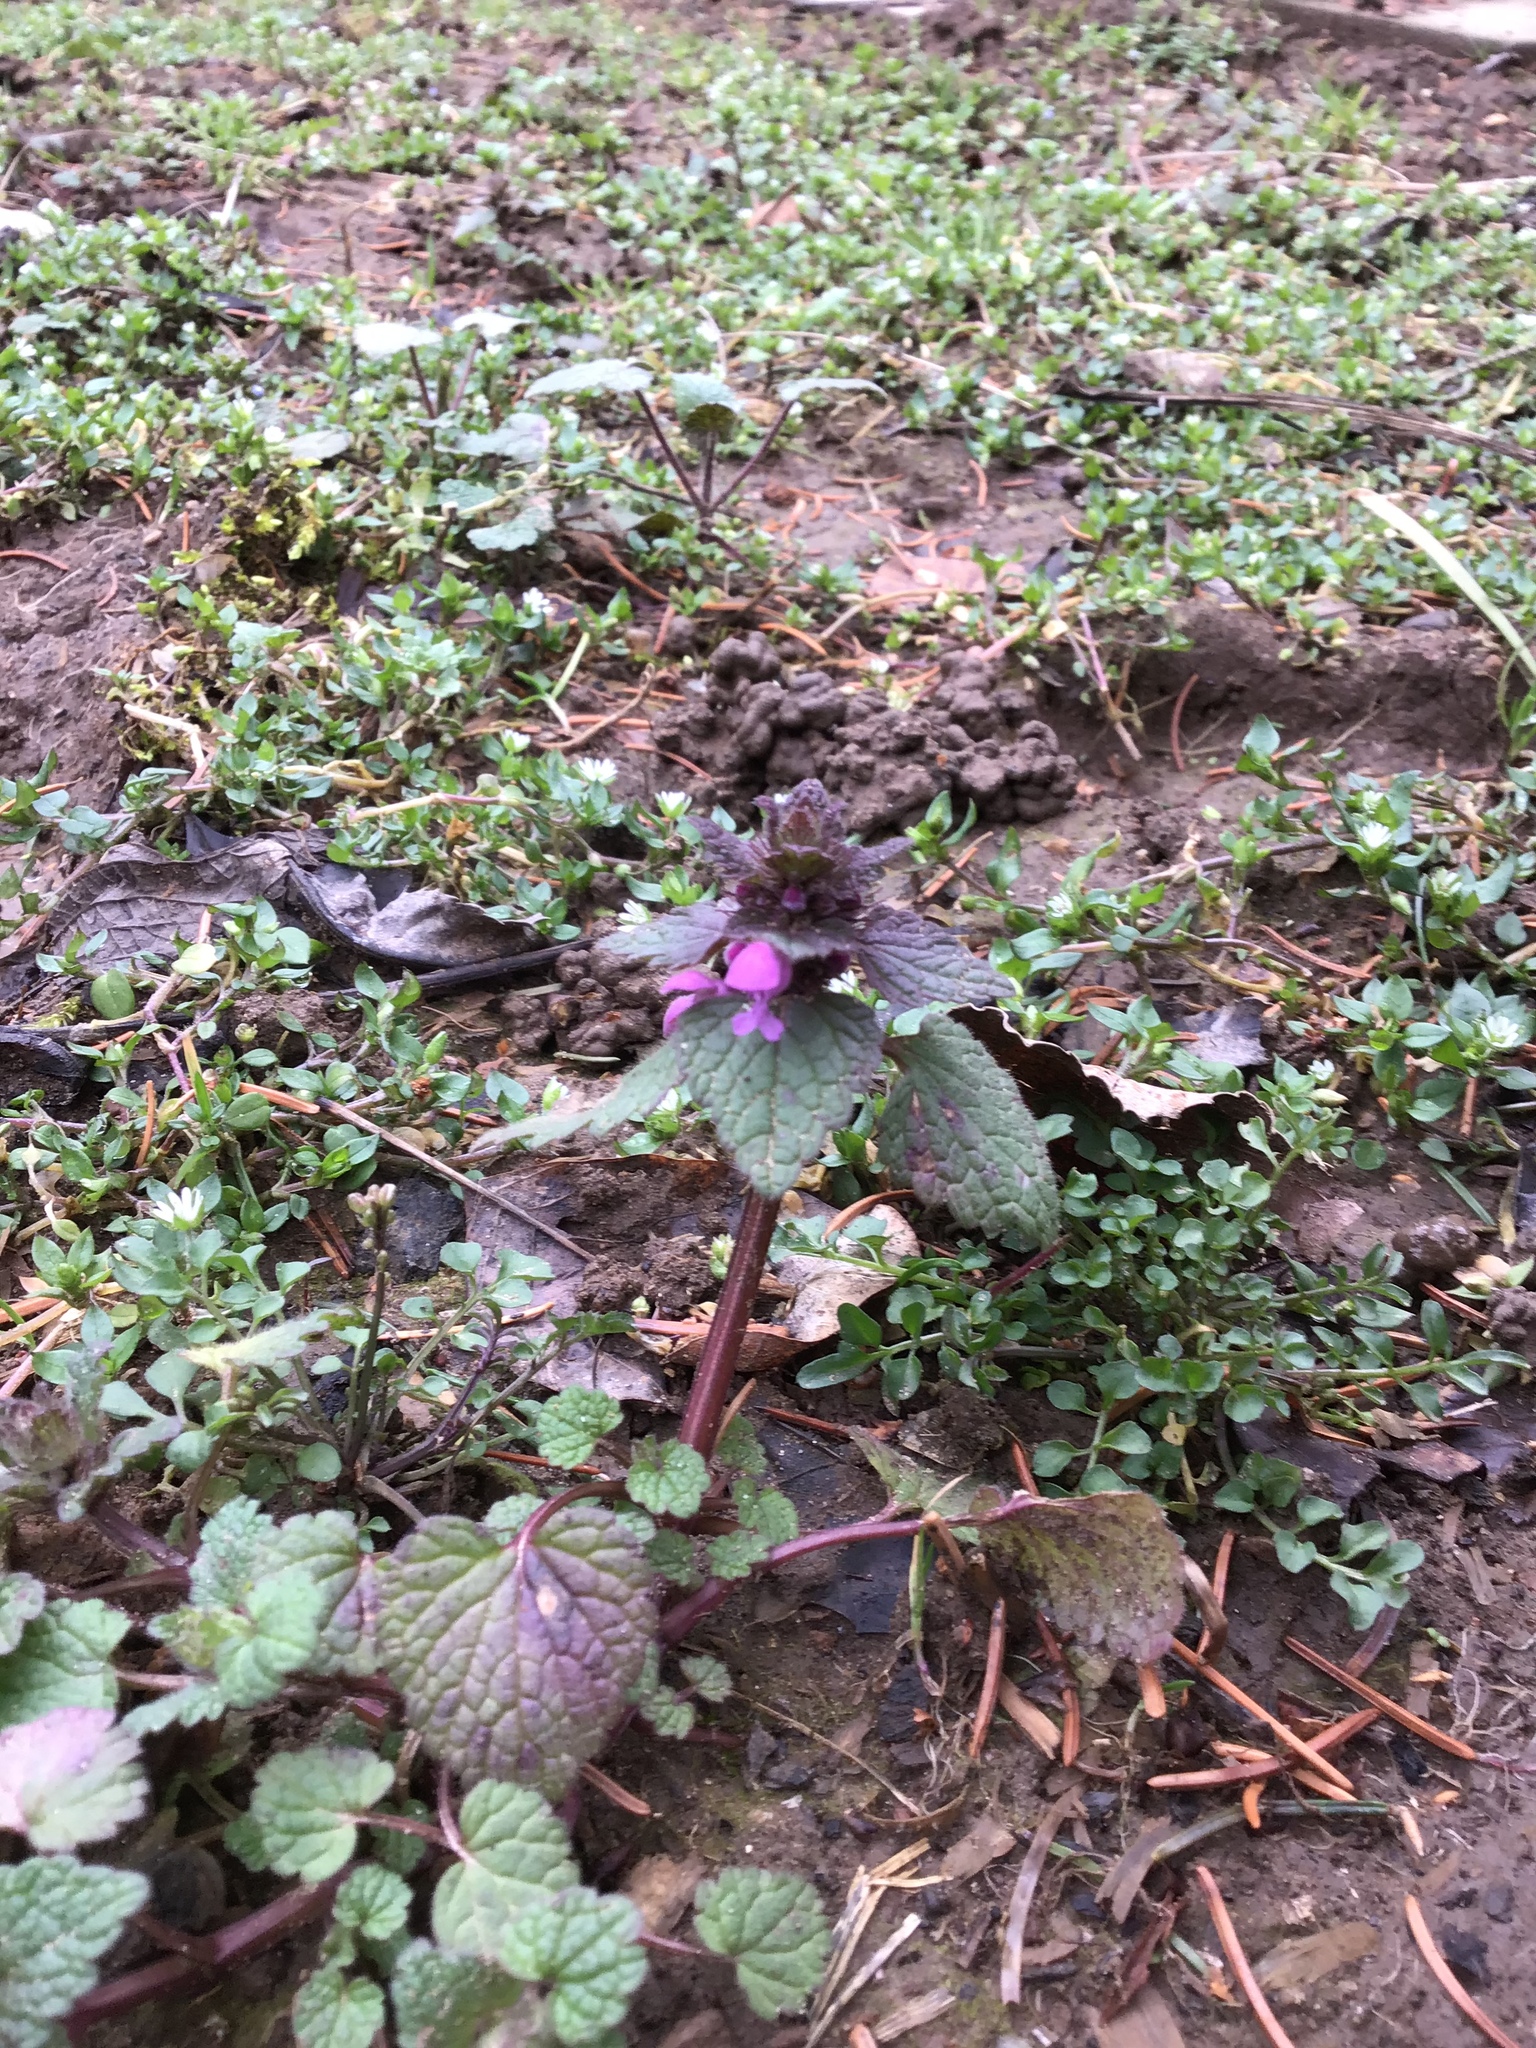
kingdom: Plantae
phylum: Tracheophyta
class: Magnoliopsida
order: Lamiales
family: Lamiaceae
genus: Lamium
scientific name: Lamium purpureum
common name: Red dead-nettle
